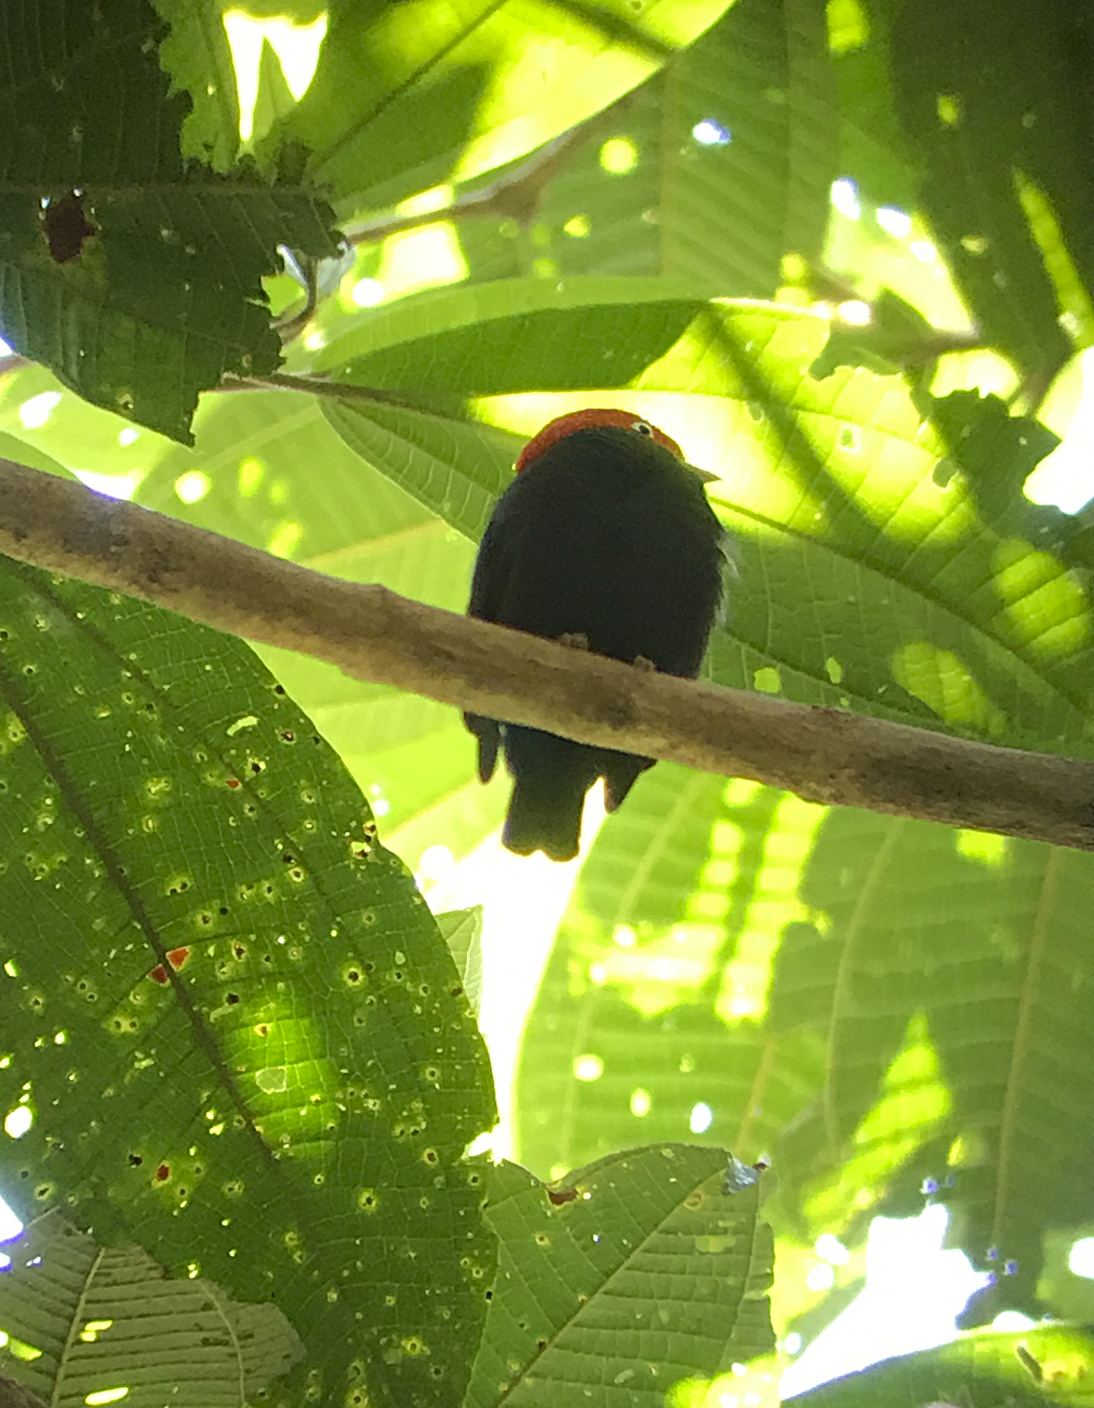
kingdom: Animalia
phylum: Chordata
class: Aves
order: Passeriformes
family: Pipridae
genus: Pipra
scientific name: Pipra mentalis
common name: Red-capped manakin
